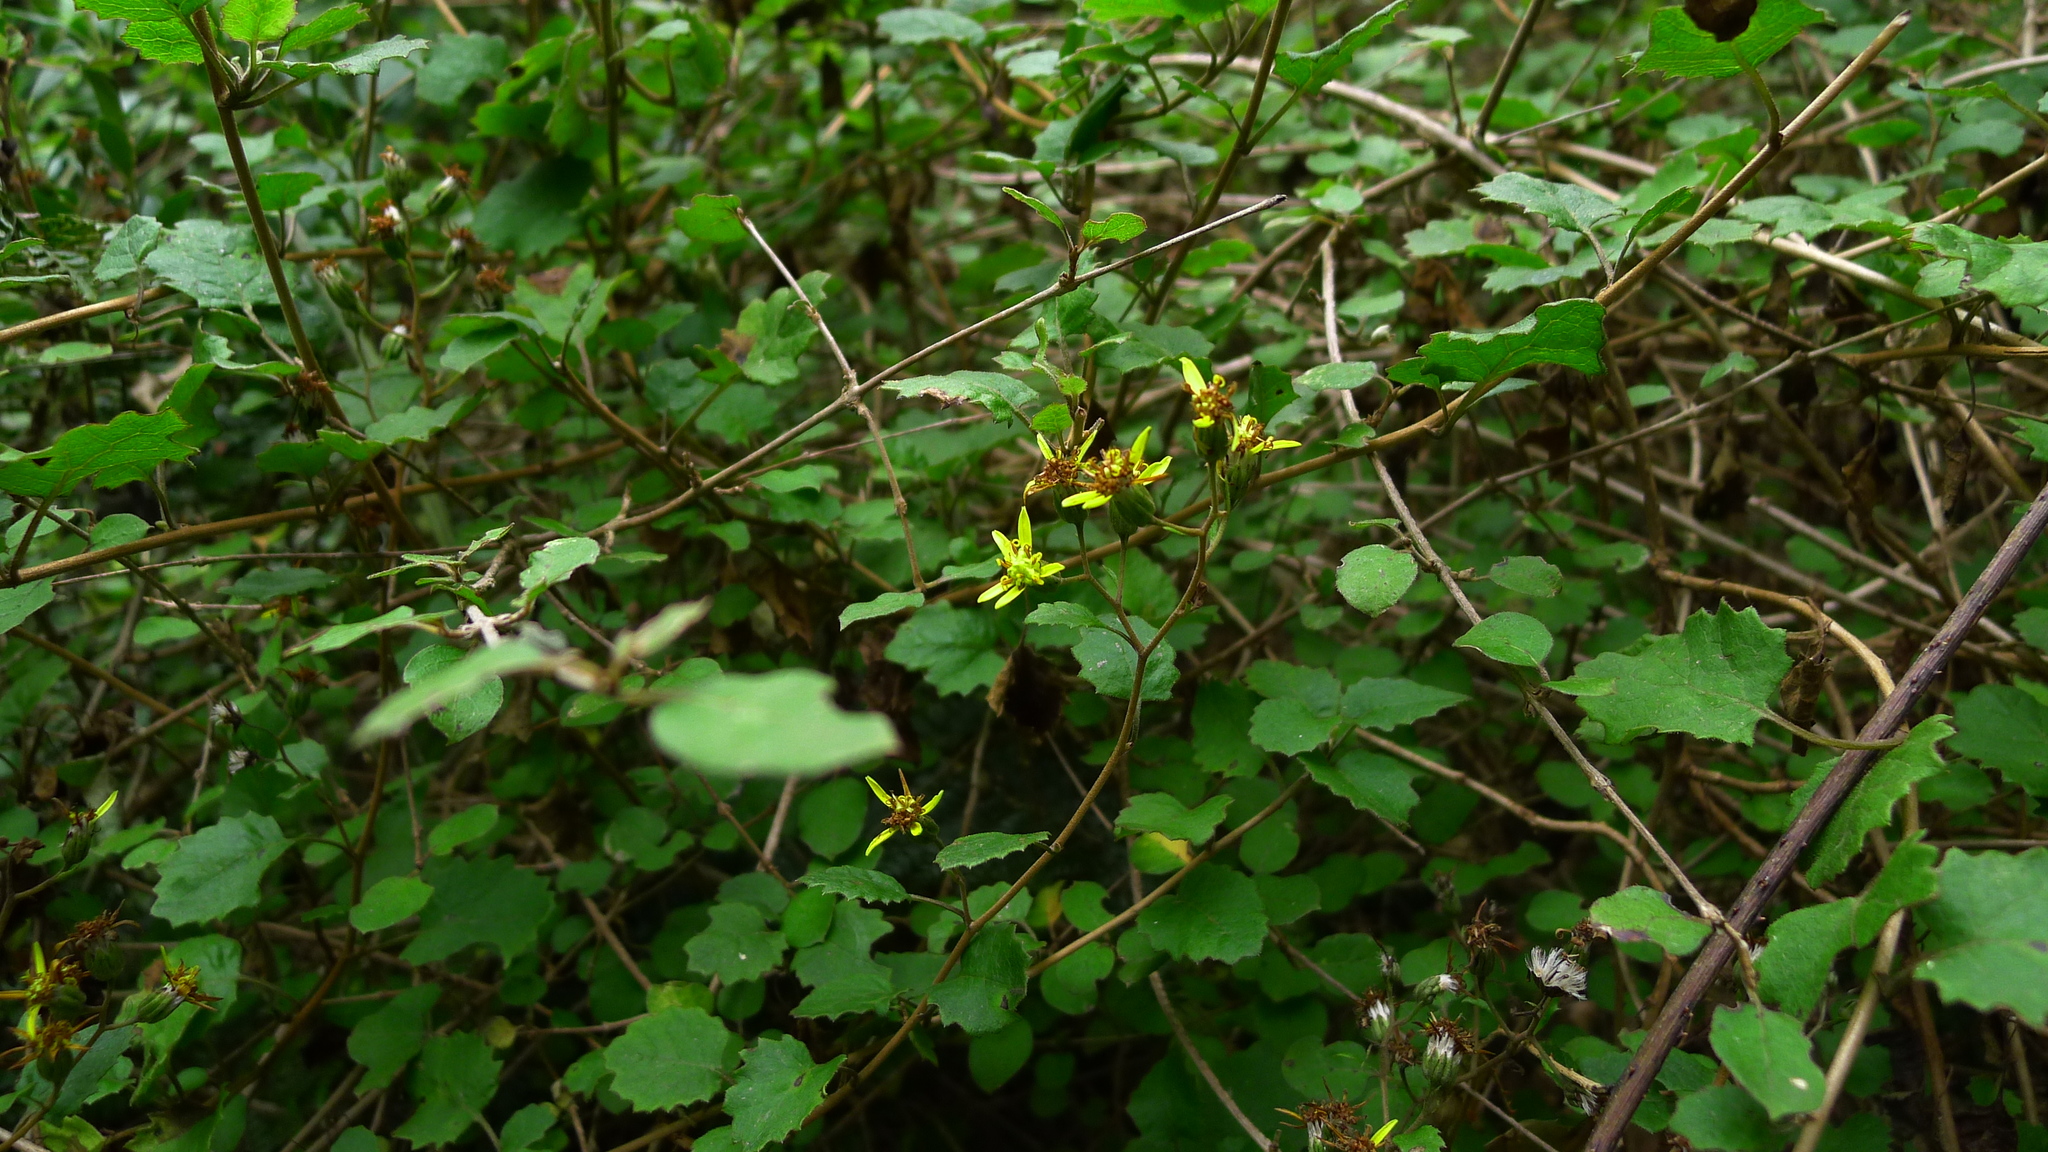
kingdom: Plantae
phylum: Tracheophyta
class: Magnoliopsida
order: Asterales
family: Asteraceae
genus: Brachyglottis
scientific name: Brachyglottis sciadophila
